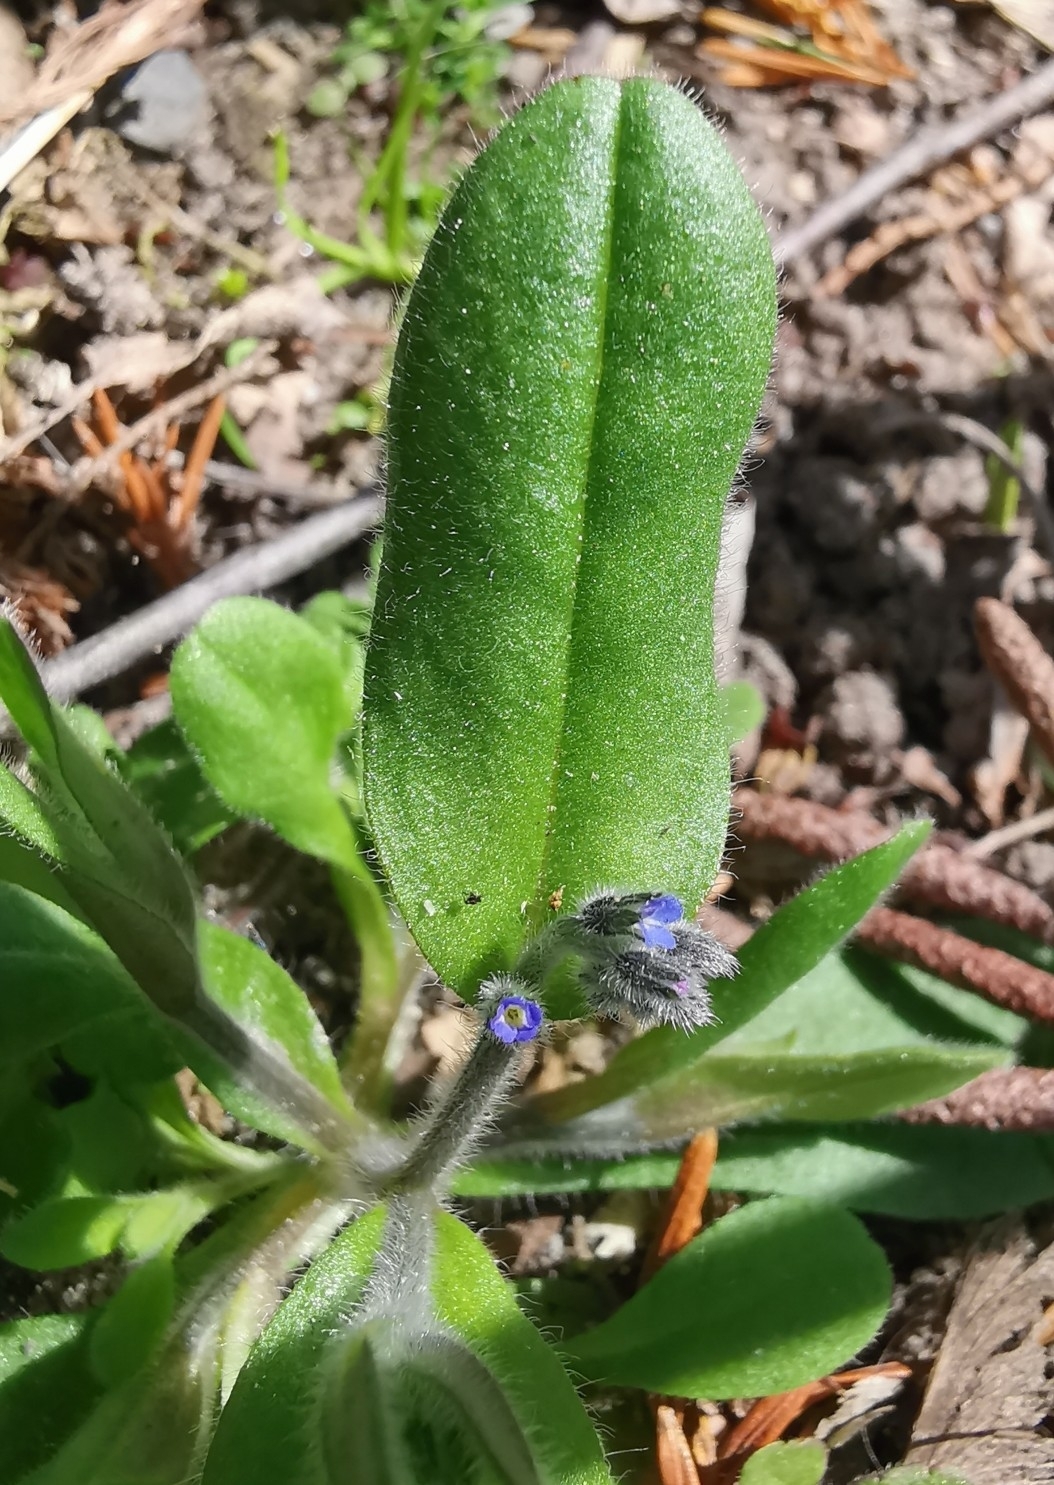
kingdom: Plantae
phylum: Tracheophyta
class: Magnoliopsida
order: Boraginales
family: Boraginaceae
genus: Myosotis
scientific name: Myosotis ramosissima
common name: Early forget-me-not
